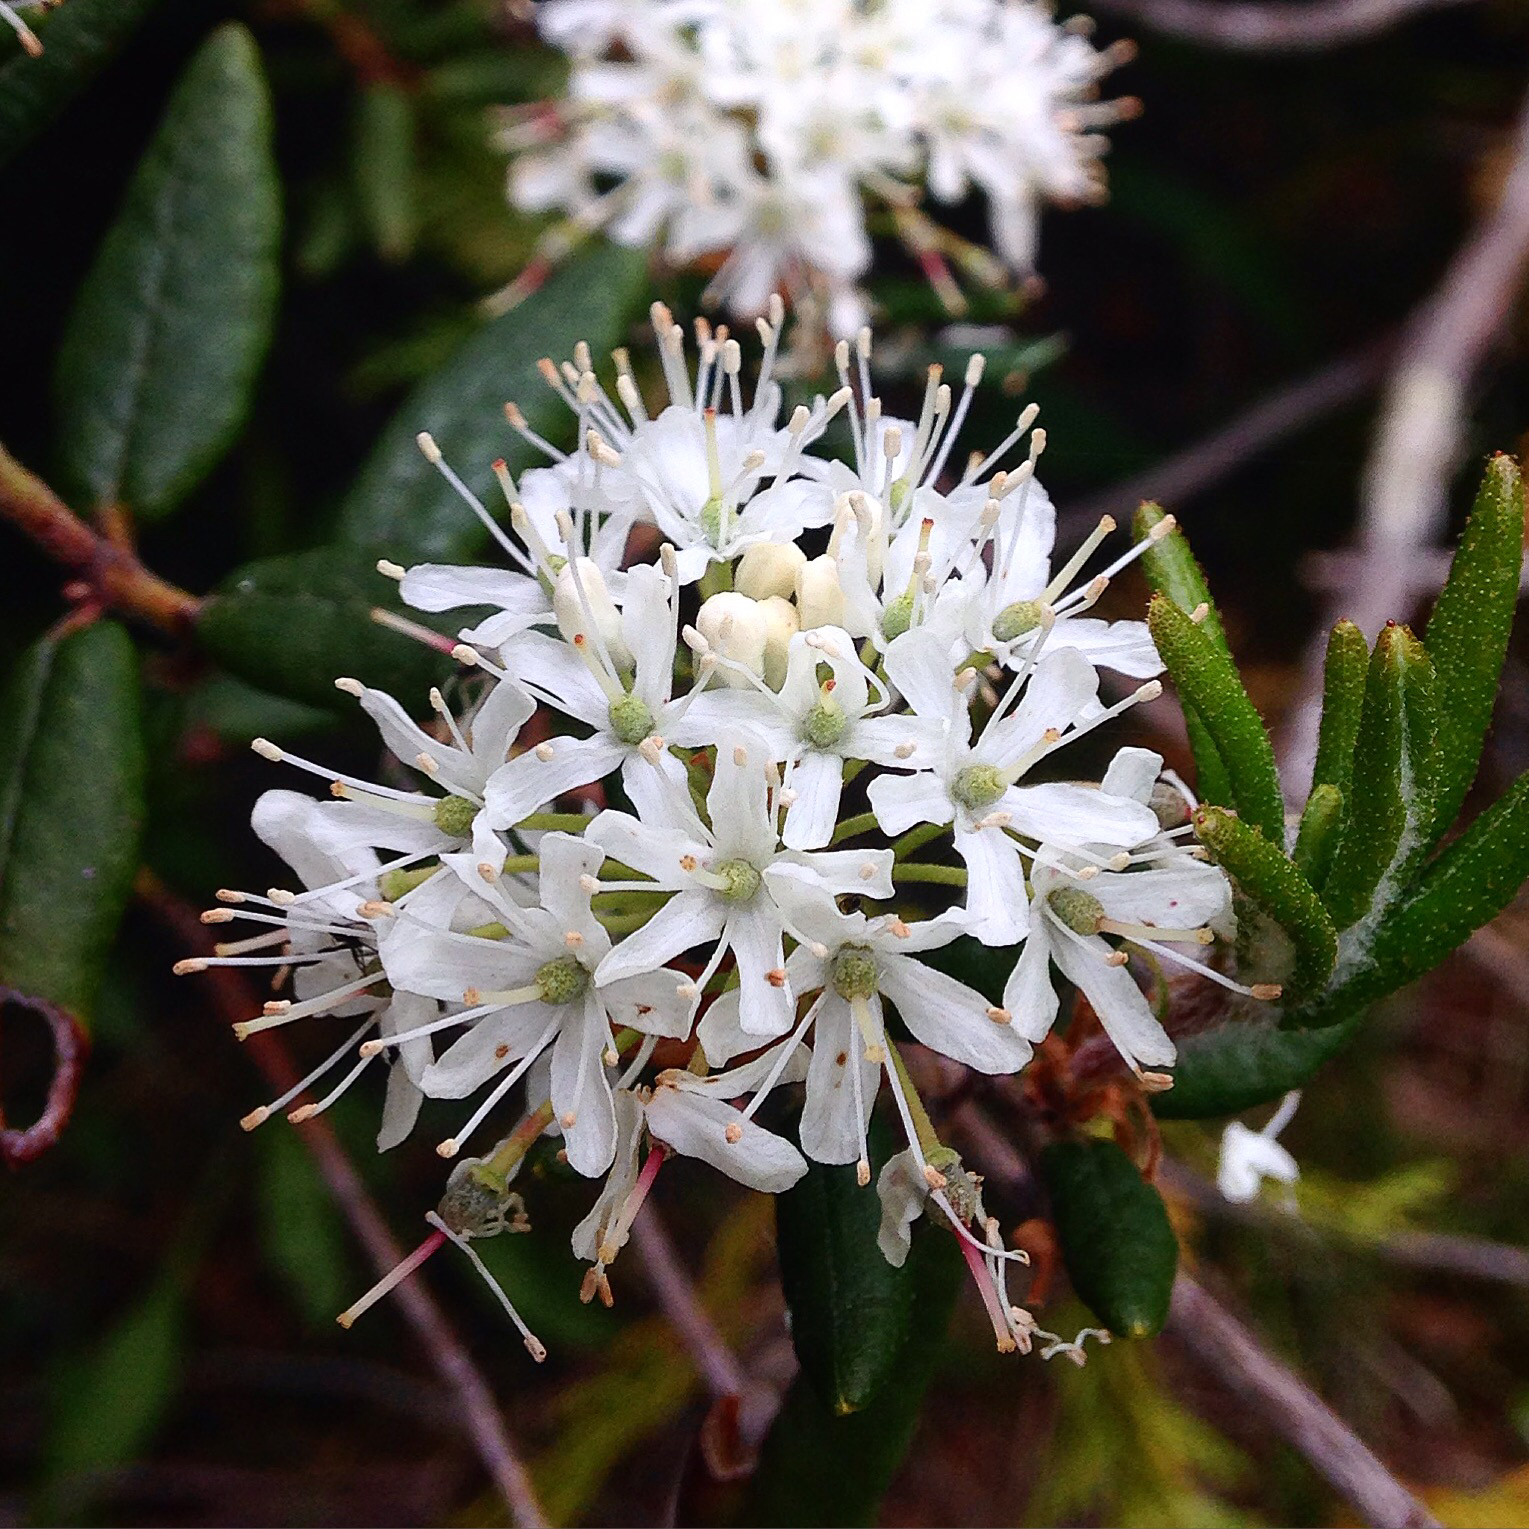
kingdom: Plantae
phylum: Tracheophyta
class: Magnoliopsida
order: Ericales
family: Ericaceae
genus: Rhododendron
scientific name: Rhododendron groenlandicum
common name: Bog labrador tea
